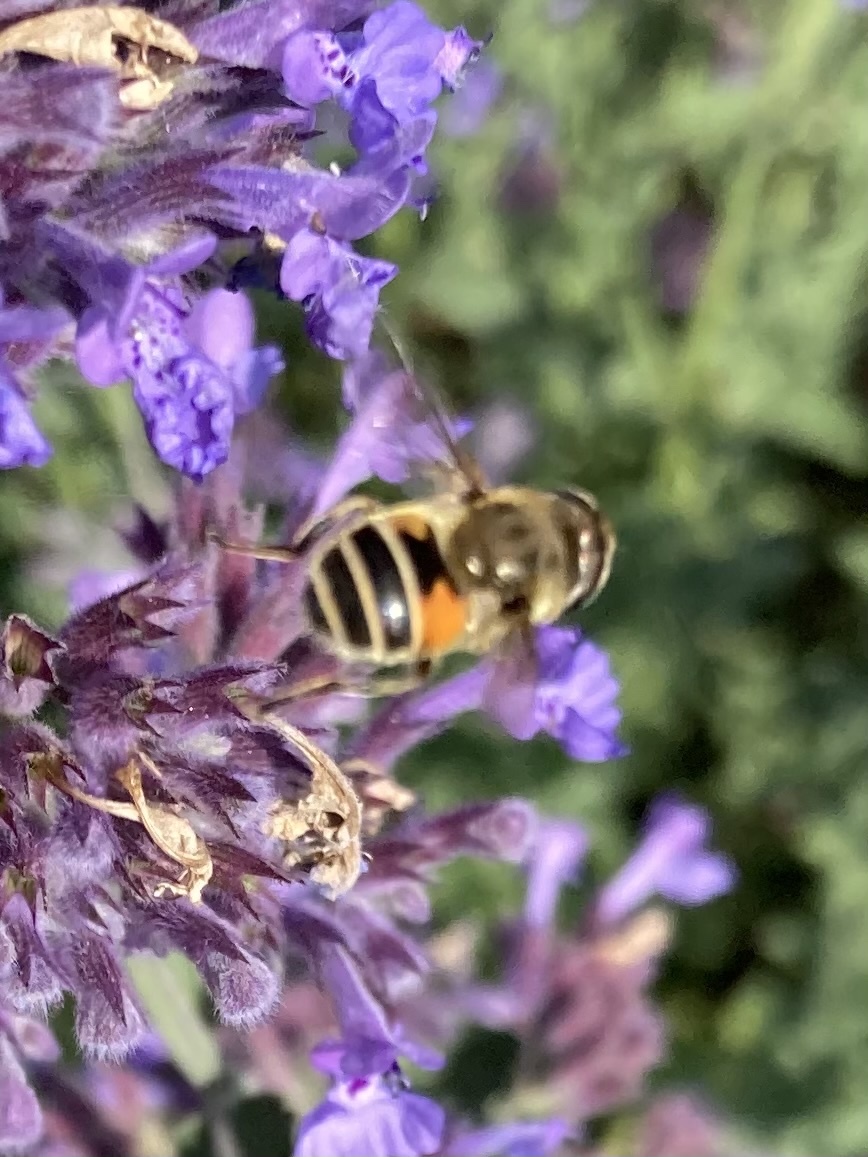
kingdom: Animalia
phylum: Arthropoda
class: Insecta
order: Diptera
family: Syrphidae
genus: Eristalis
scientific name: Eristalis arbustorum
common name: Hover fly
